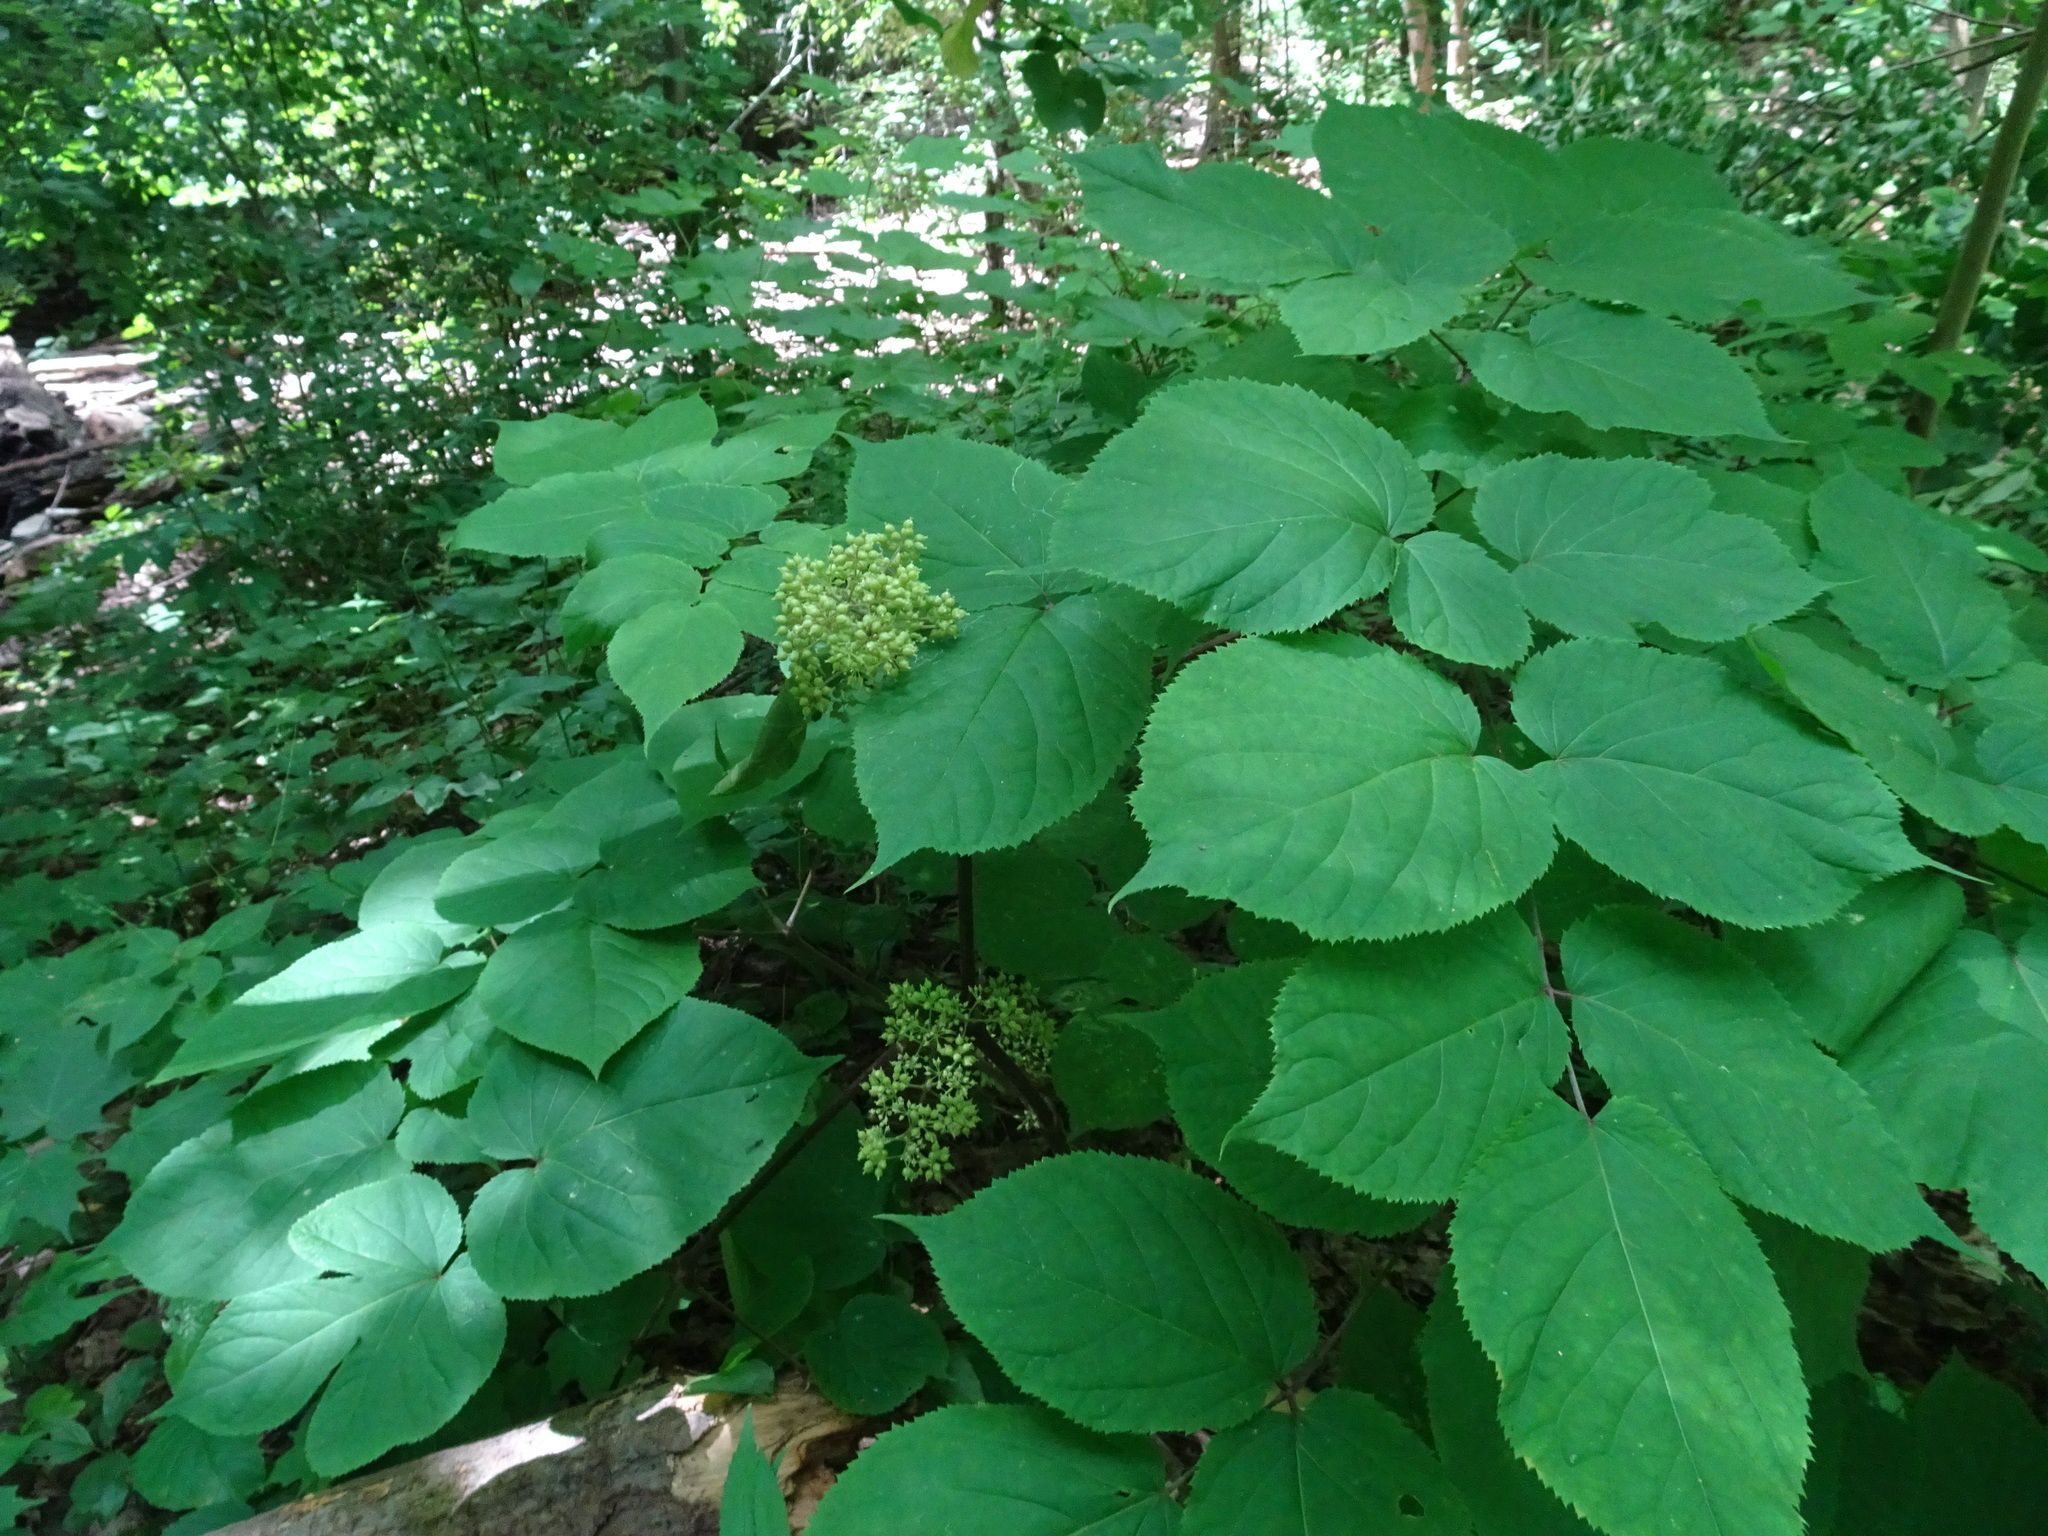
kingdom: Plantae
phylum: Tracheophyta
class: Magnoliopsida
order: Apiales
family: Araliaceae
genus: Aralia
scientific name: Aralia racemosa
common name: American-spikenard
